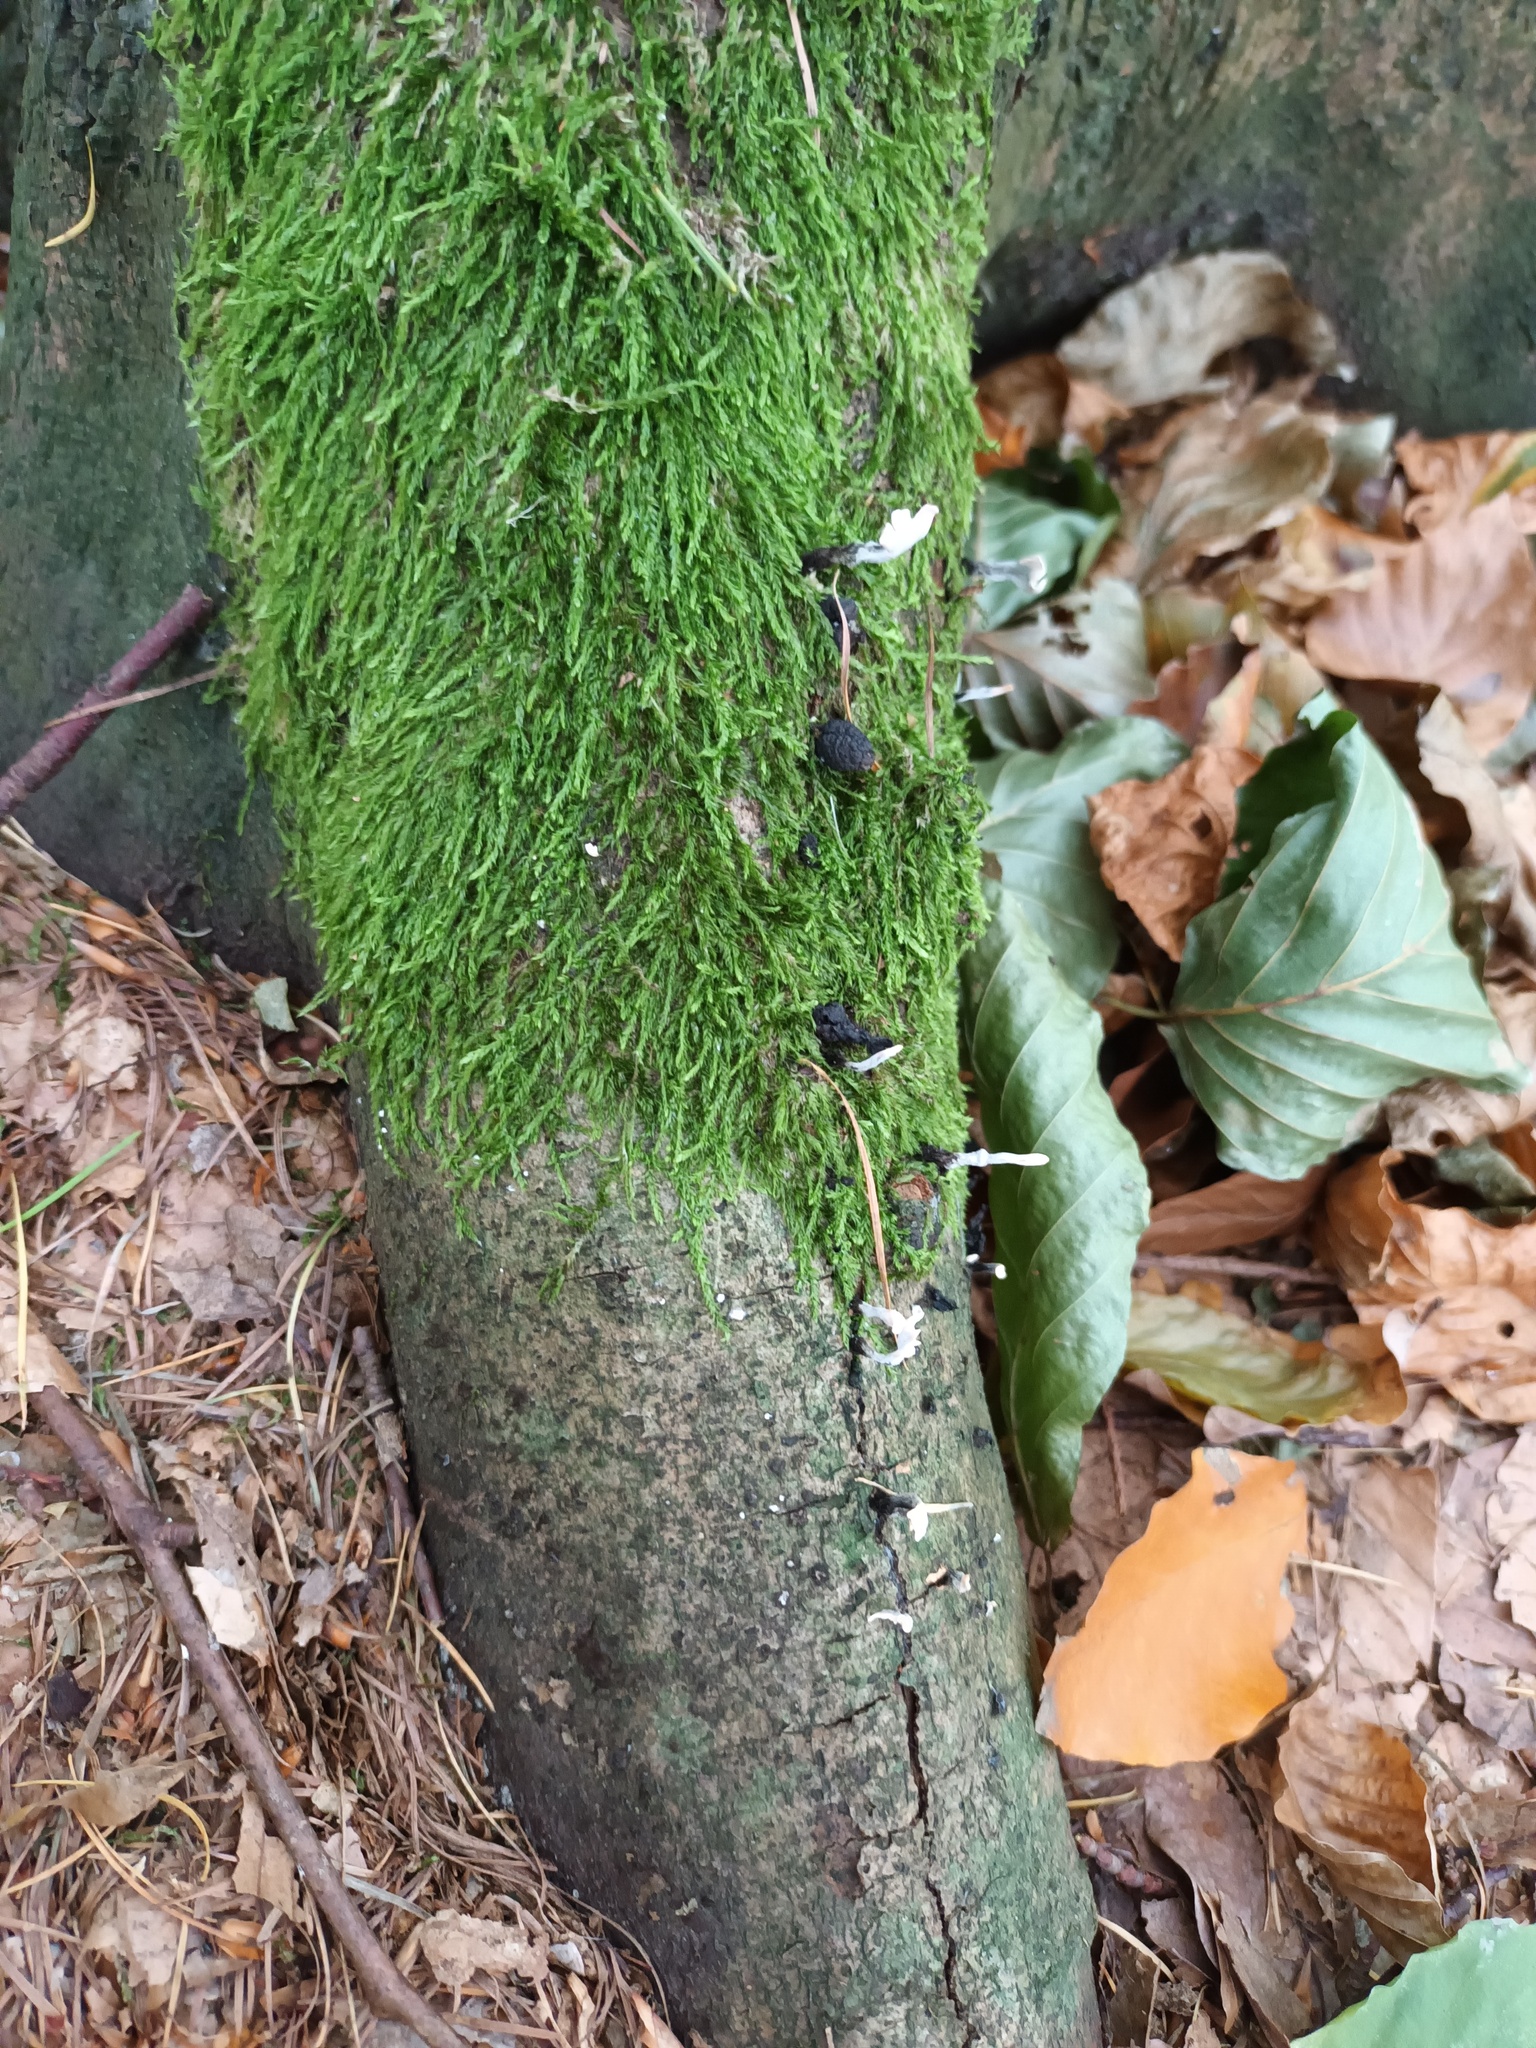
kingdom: Fungi
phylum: Ascomycota
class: Sordariomycetes
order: Xylariales
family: Xylariaceae
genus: Xylaria
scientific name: Xylaria hypoxylon
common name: Candle-snuff fungus
